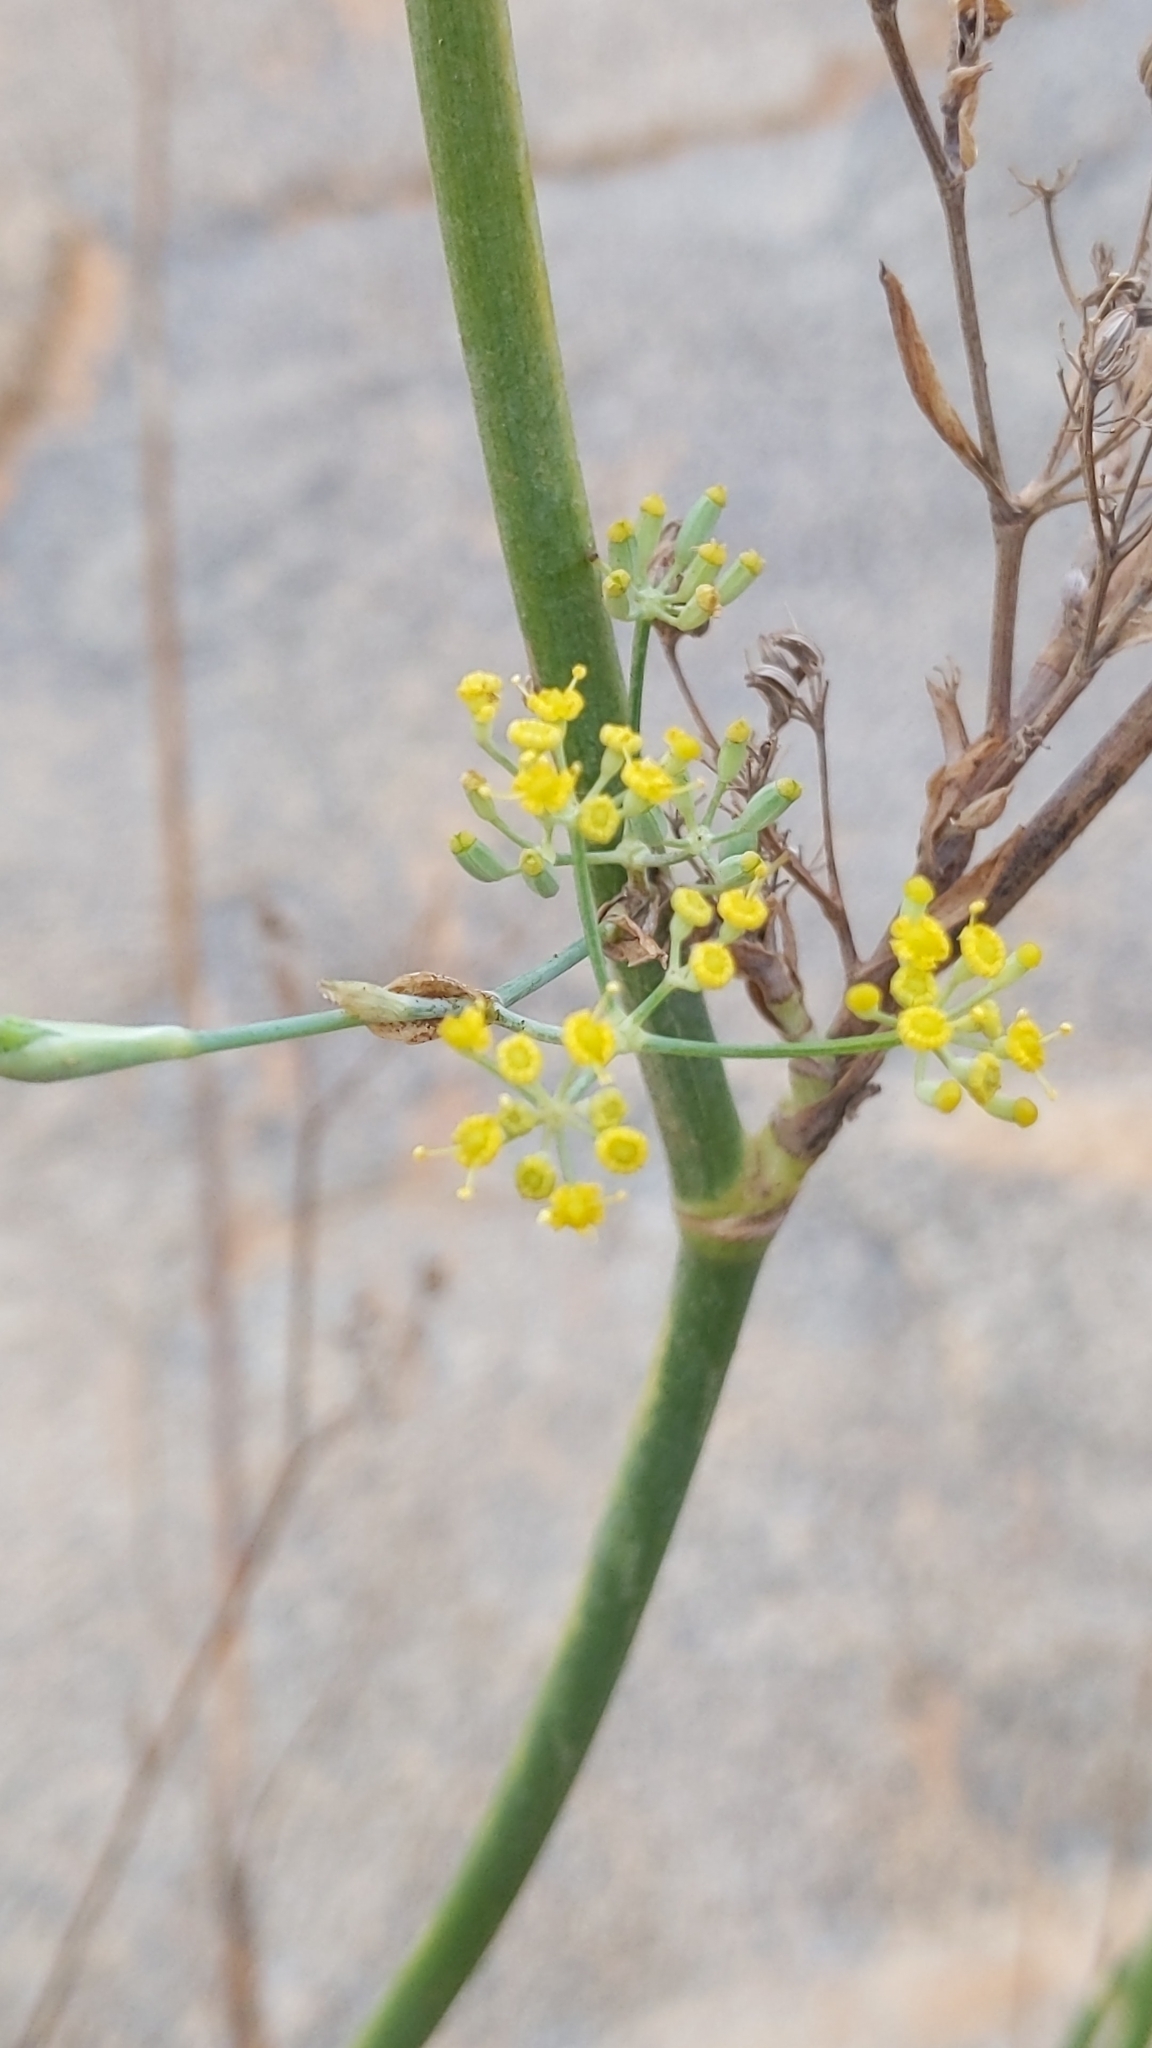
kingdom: Plantae
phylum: Tracheophyta
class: Magnoliopsida
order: Apiales
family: Apiaceae
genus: Foeniculum
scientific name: Foeniculum vulgare
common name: Fennel
